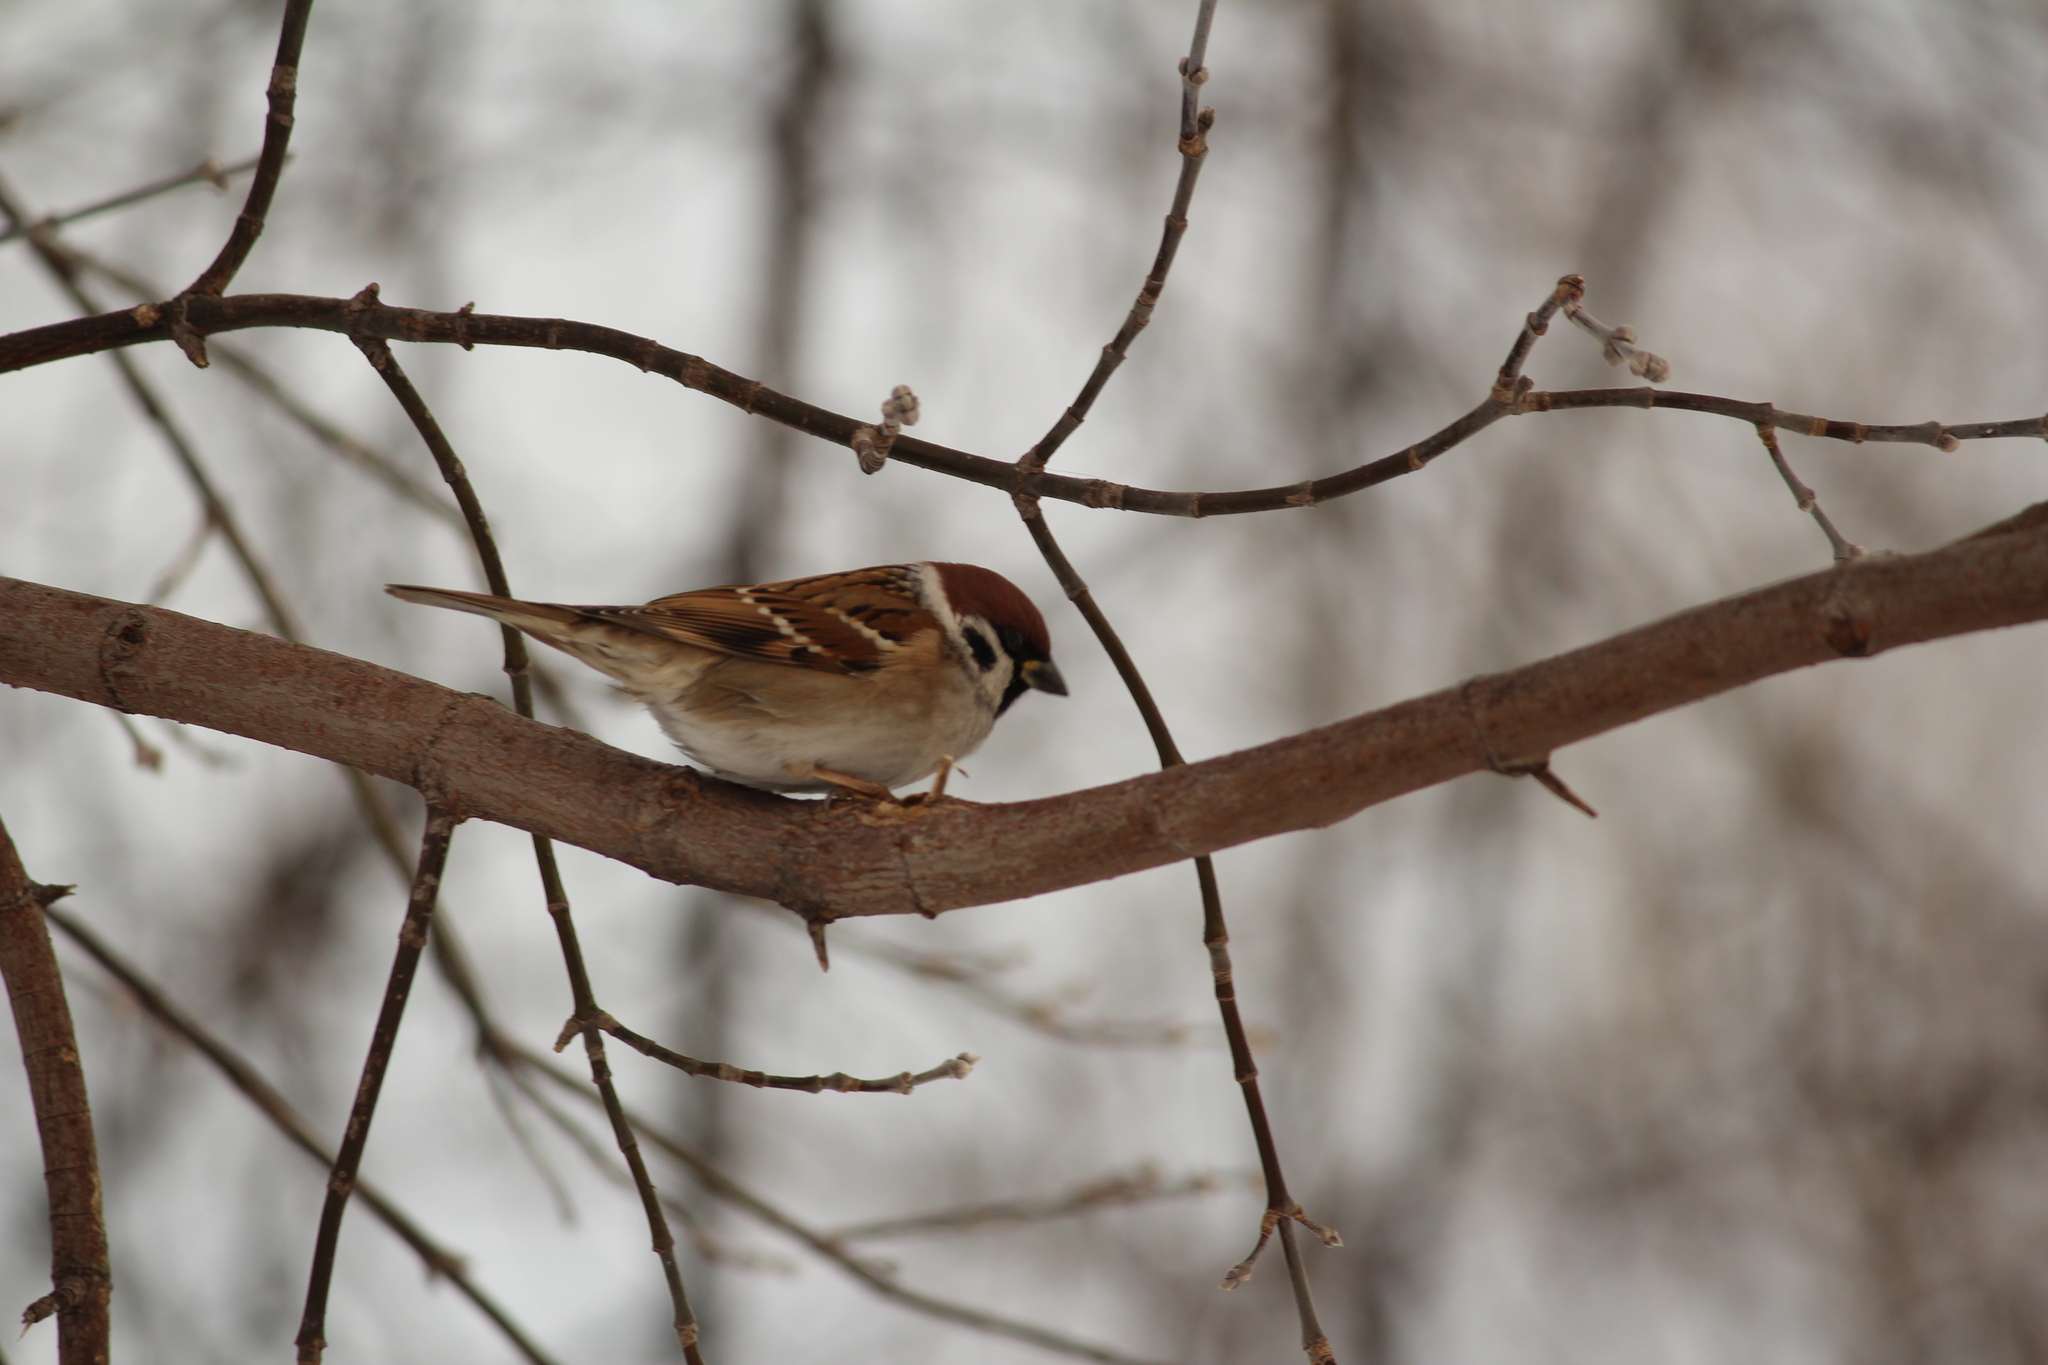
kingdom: Animalia
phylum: Chordata
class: Aves
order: Passeriformes
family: Passeridae
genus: Passer
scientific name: Passer montanus
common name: Eurasian tree sparrow
